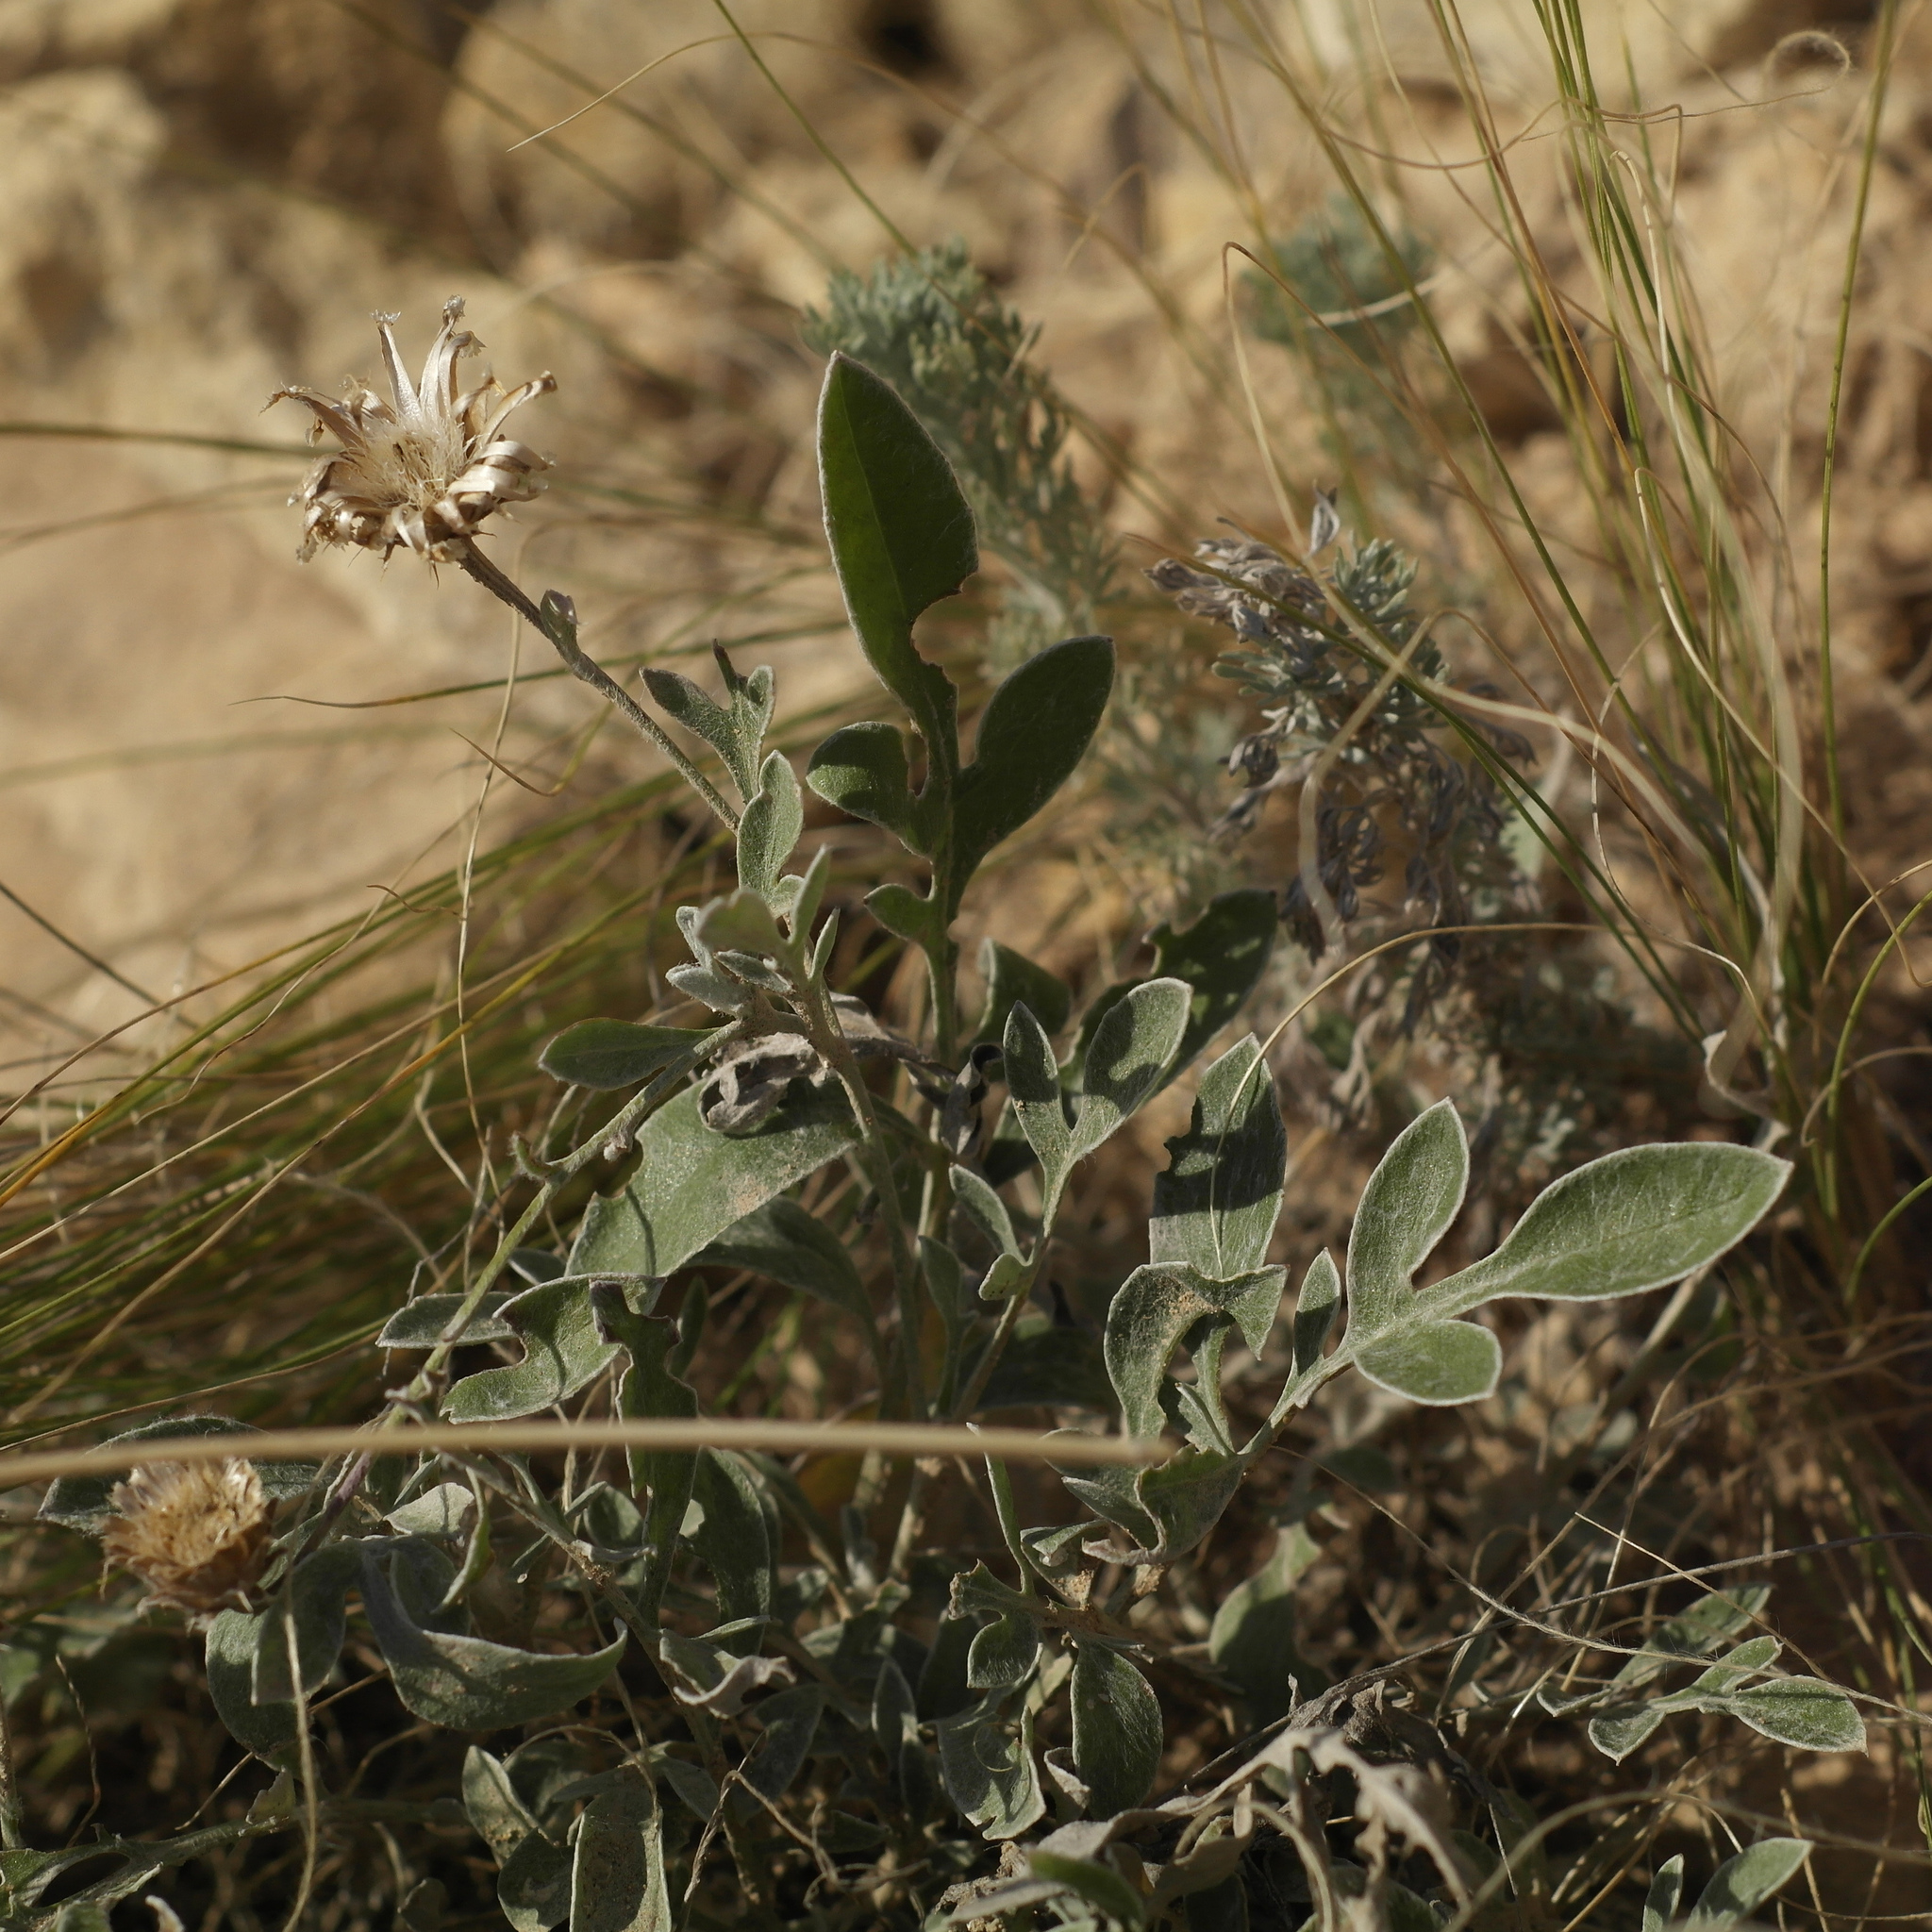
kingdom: Plantae
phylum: Tracheophyta
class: Magnoliopsida
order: Asterales
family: Asteraceae
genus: Psephellus
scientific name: Psephellus marschallianus
